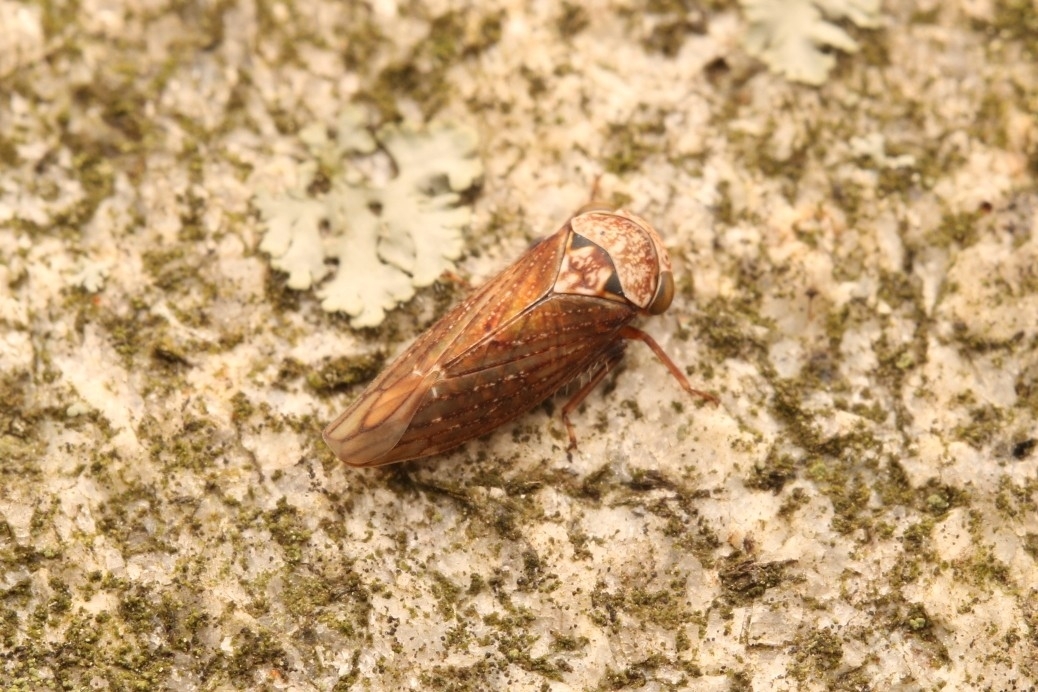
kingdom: Animalia
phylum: Arthropoda
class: Insecta
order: Hemiptera
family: Cicadellidae
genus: Acericerus
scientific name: Acericerus ribauti
